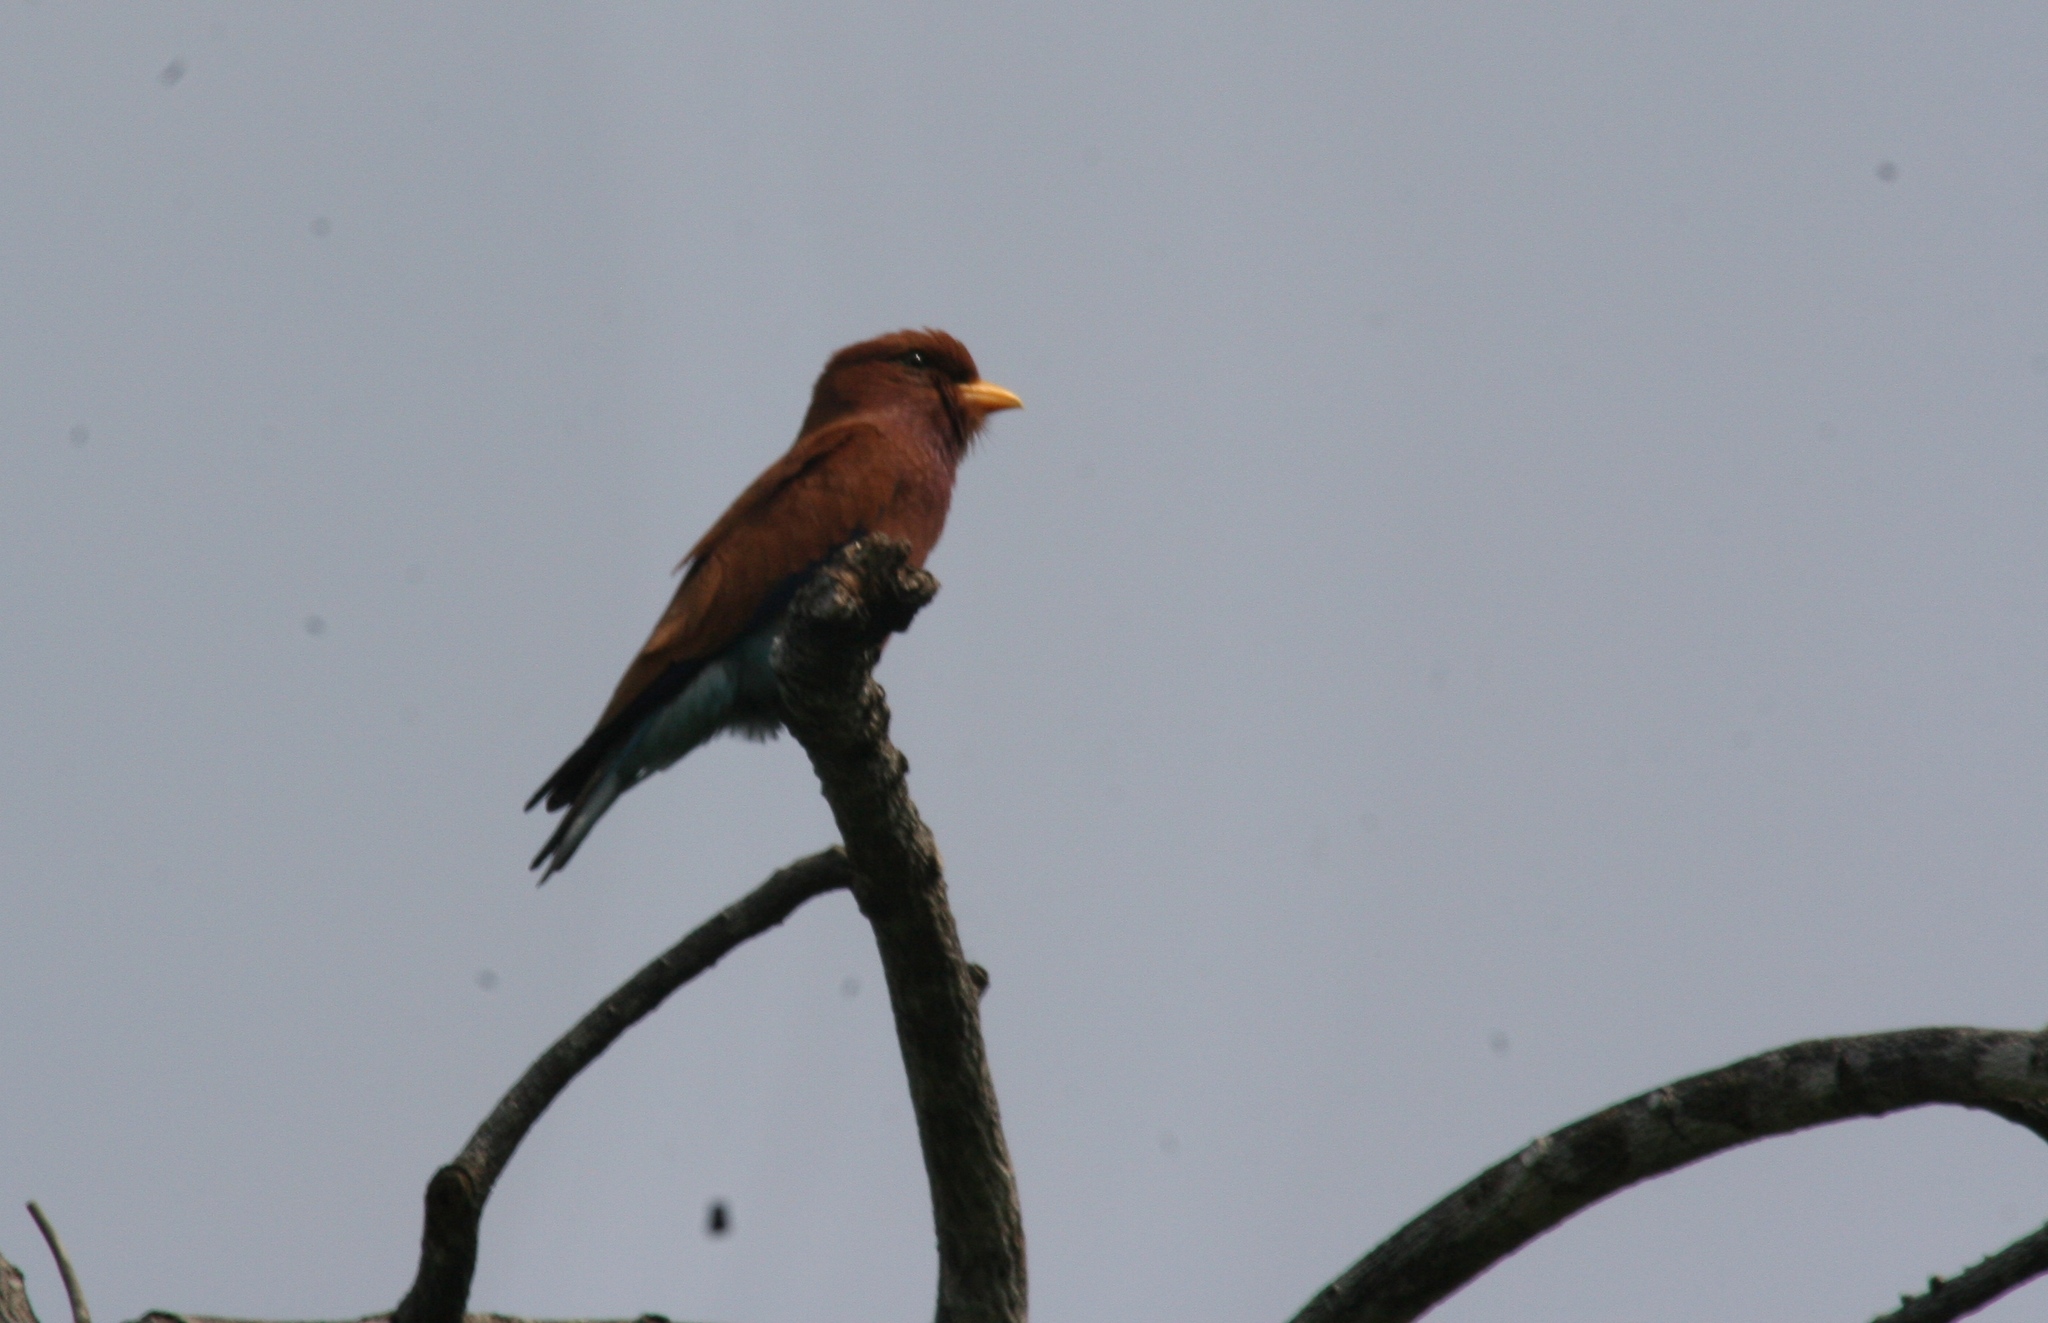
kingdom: Animalia
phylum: Chordata
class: Aves
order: Coraciiformes
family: Coraciidae
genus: Eurystomus
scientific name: Eurystomus glaucurus
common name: Broad-billed roller
